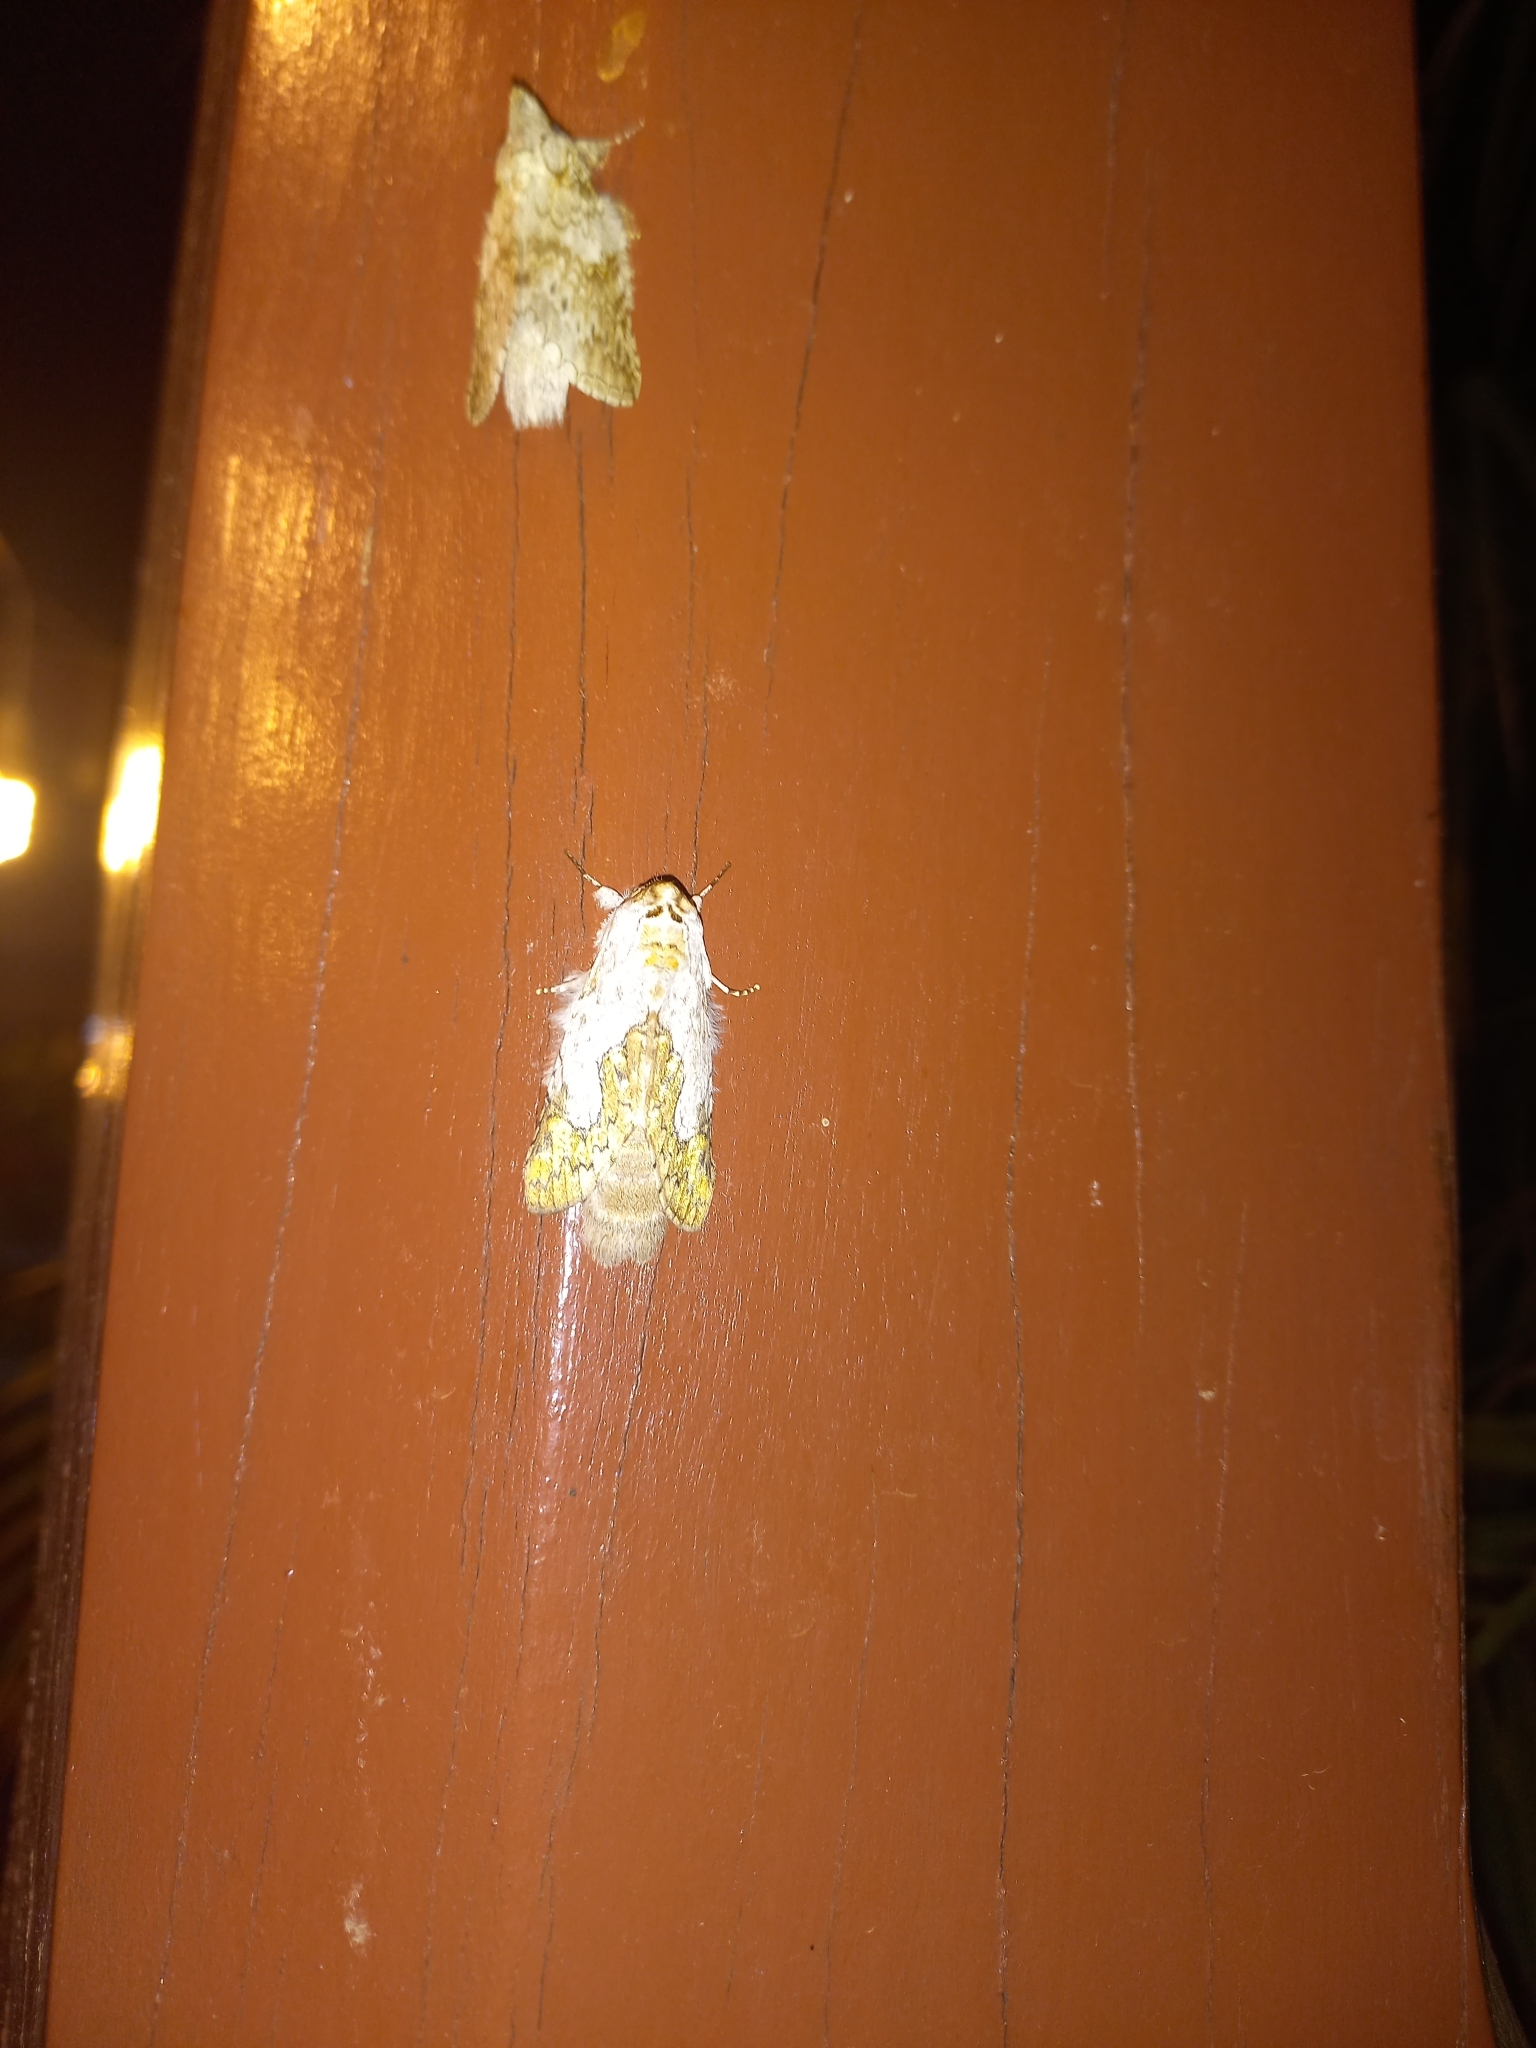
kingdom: Animalia
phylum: Arthropoda
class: Insecta
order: Lepidoptera
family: Notodontidae
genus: Ginaldia
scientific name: Ginaldia
